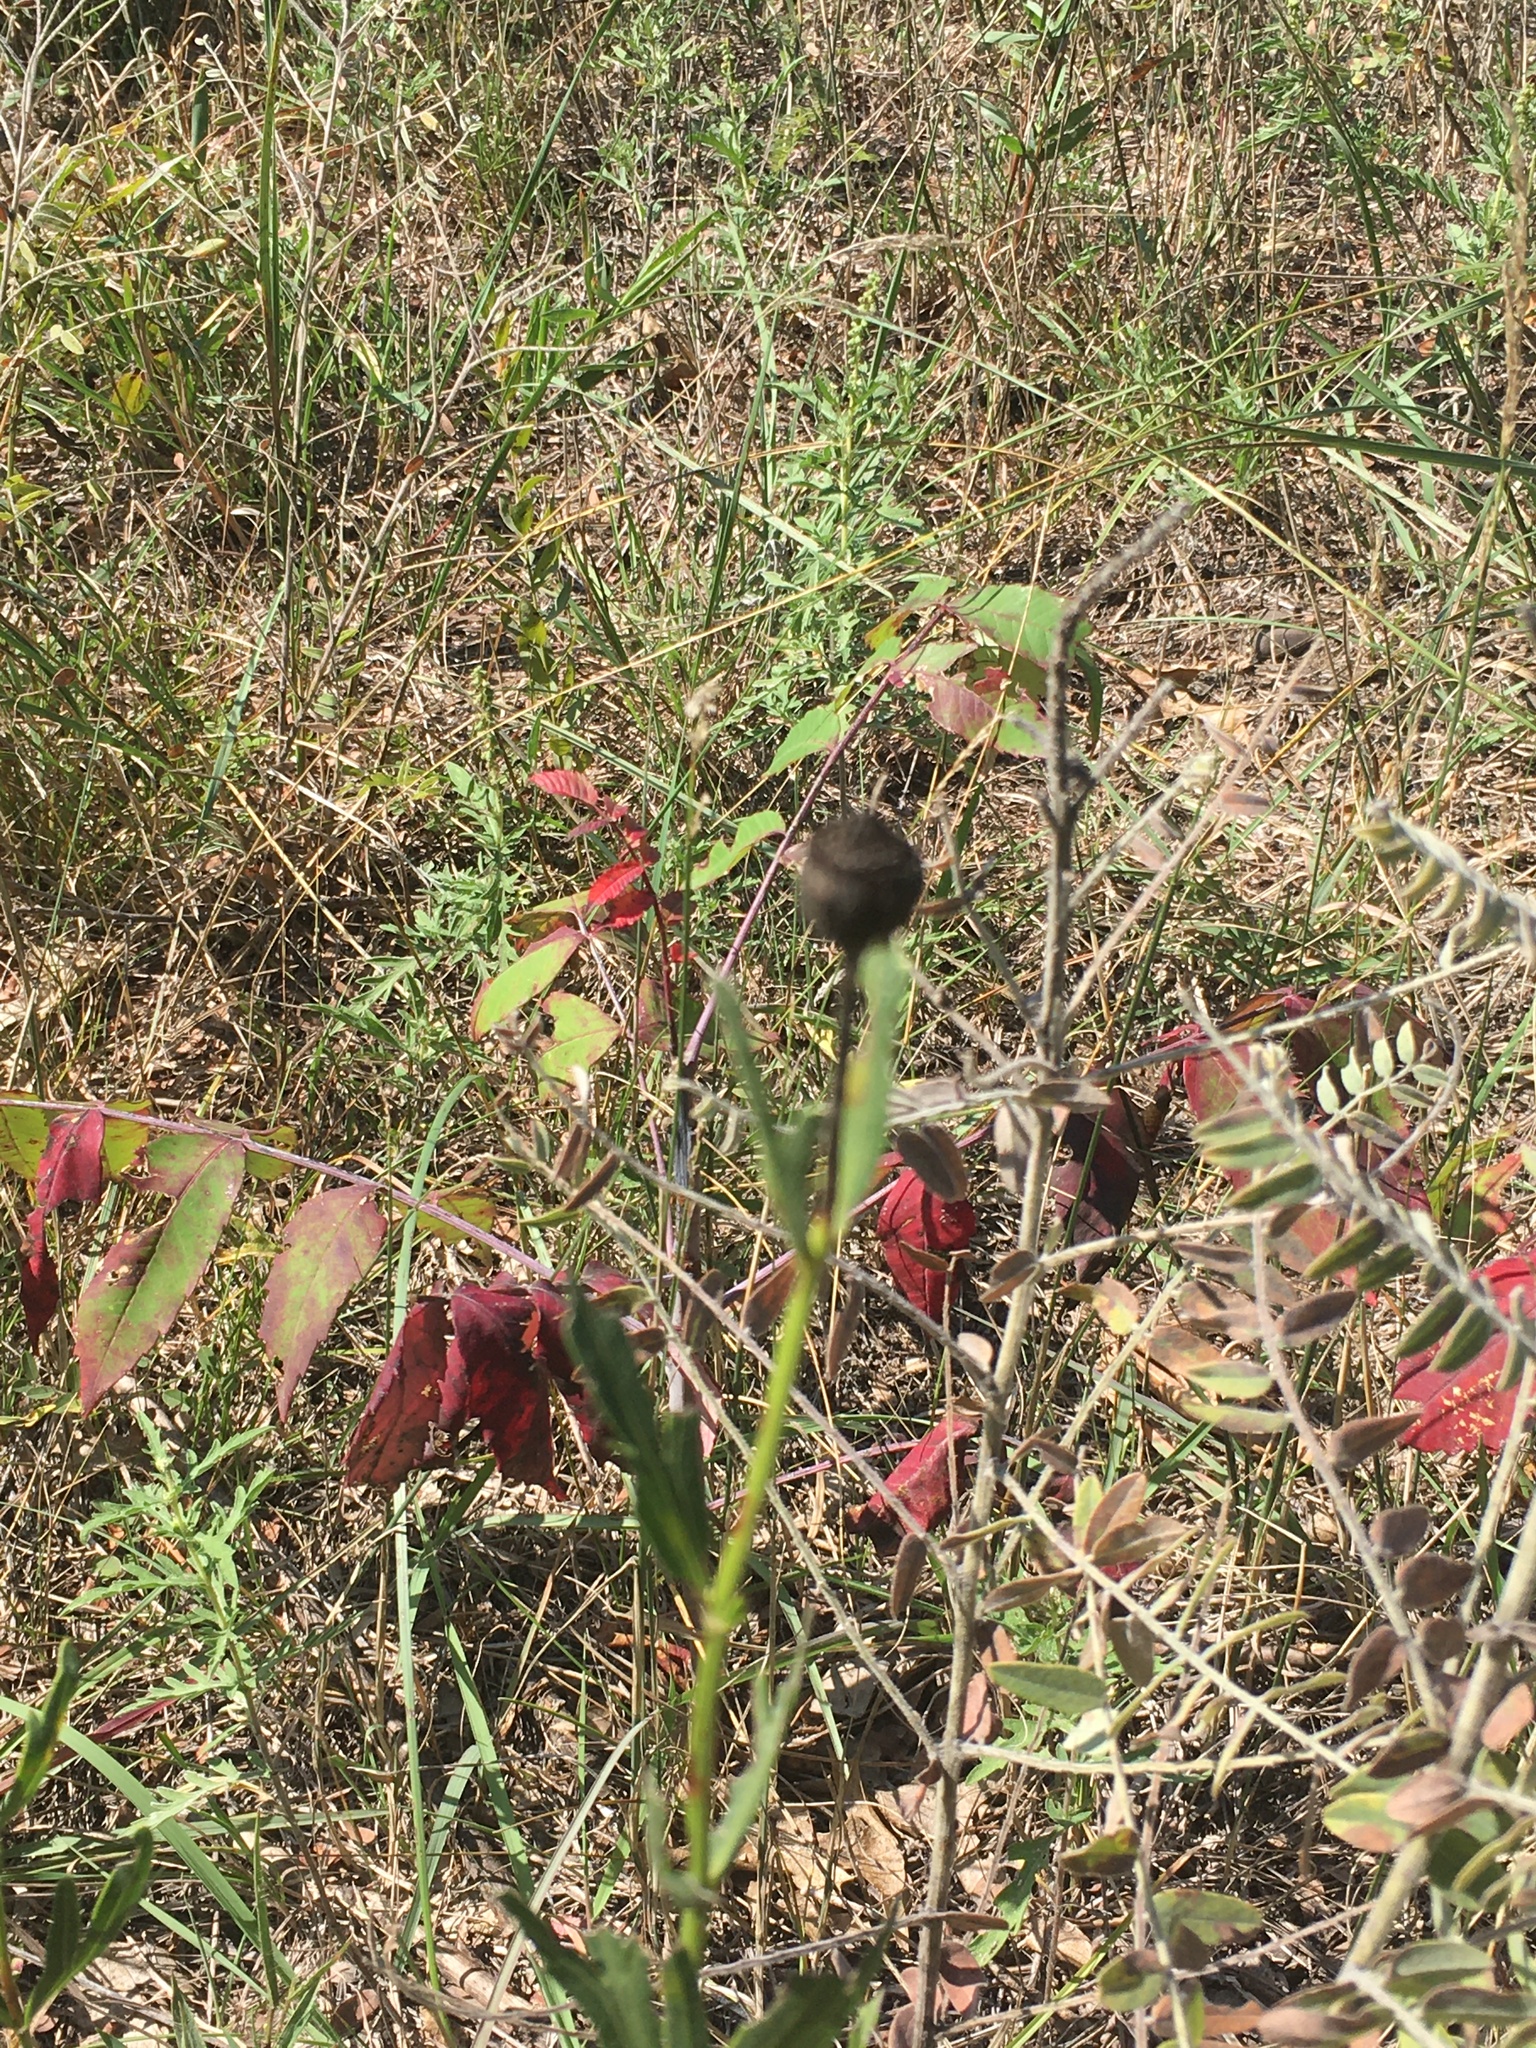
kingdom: Plantae
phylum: Tracheophyta
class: Magnoliopsida
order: Asterales
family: Asteraceae
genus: Coreopsis
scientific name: Coreopsis palmata
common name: Prairie coreopsis
